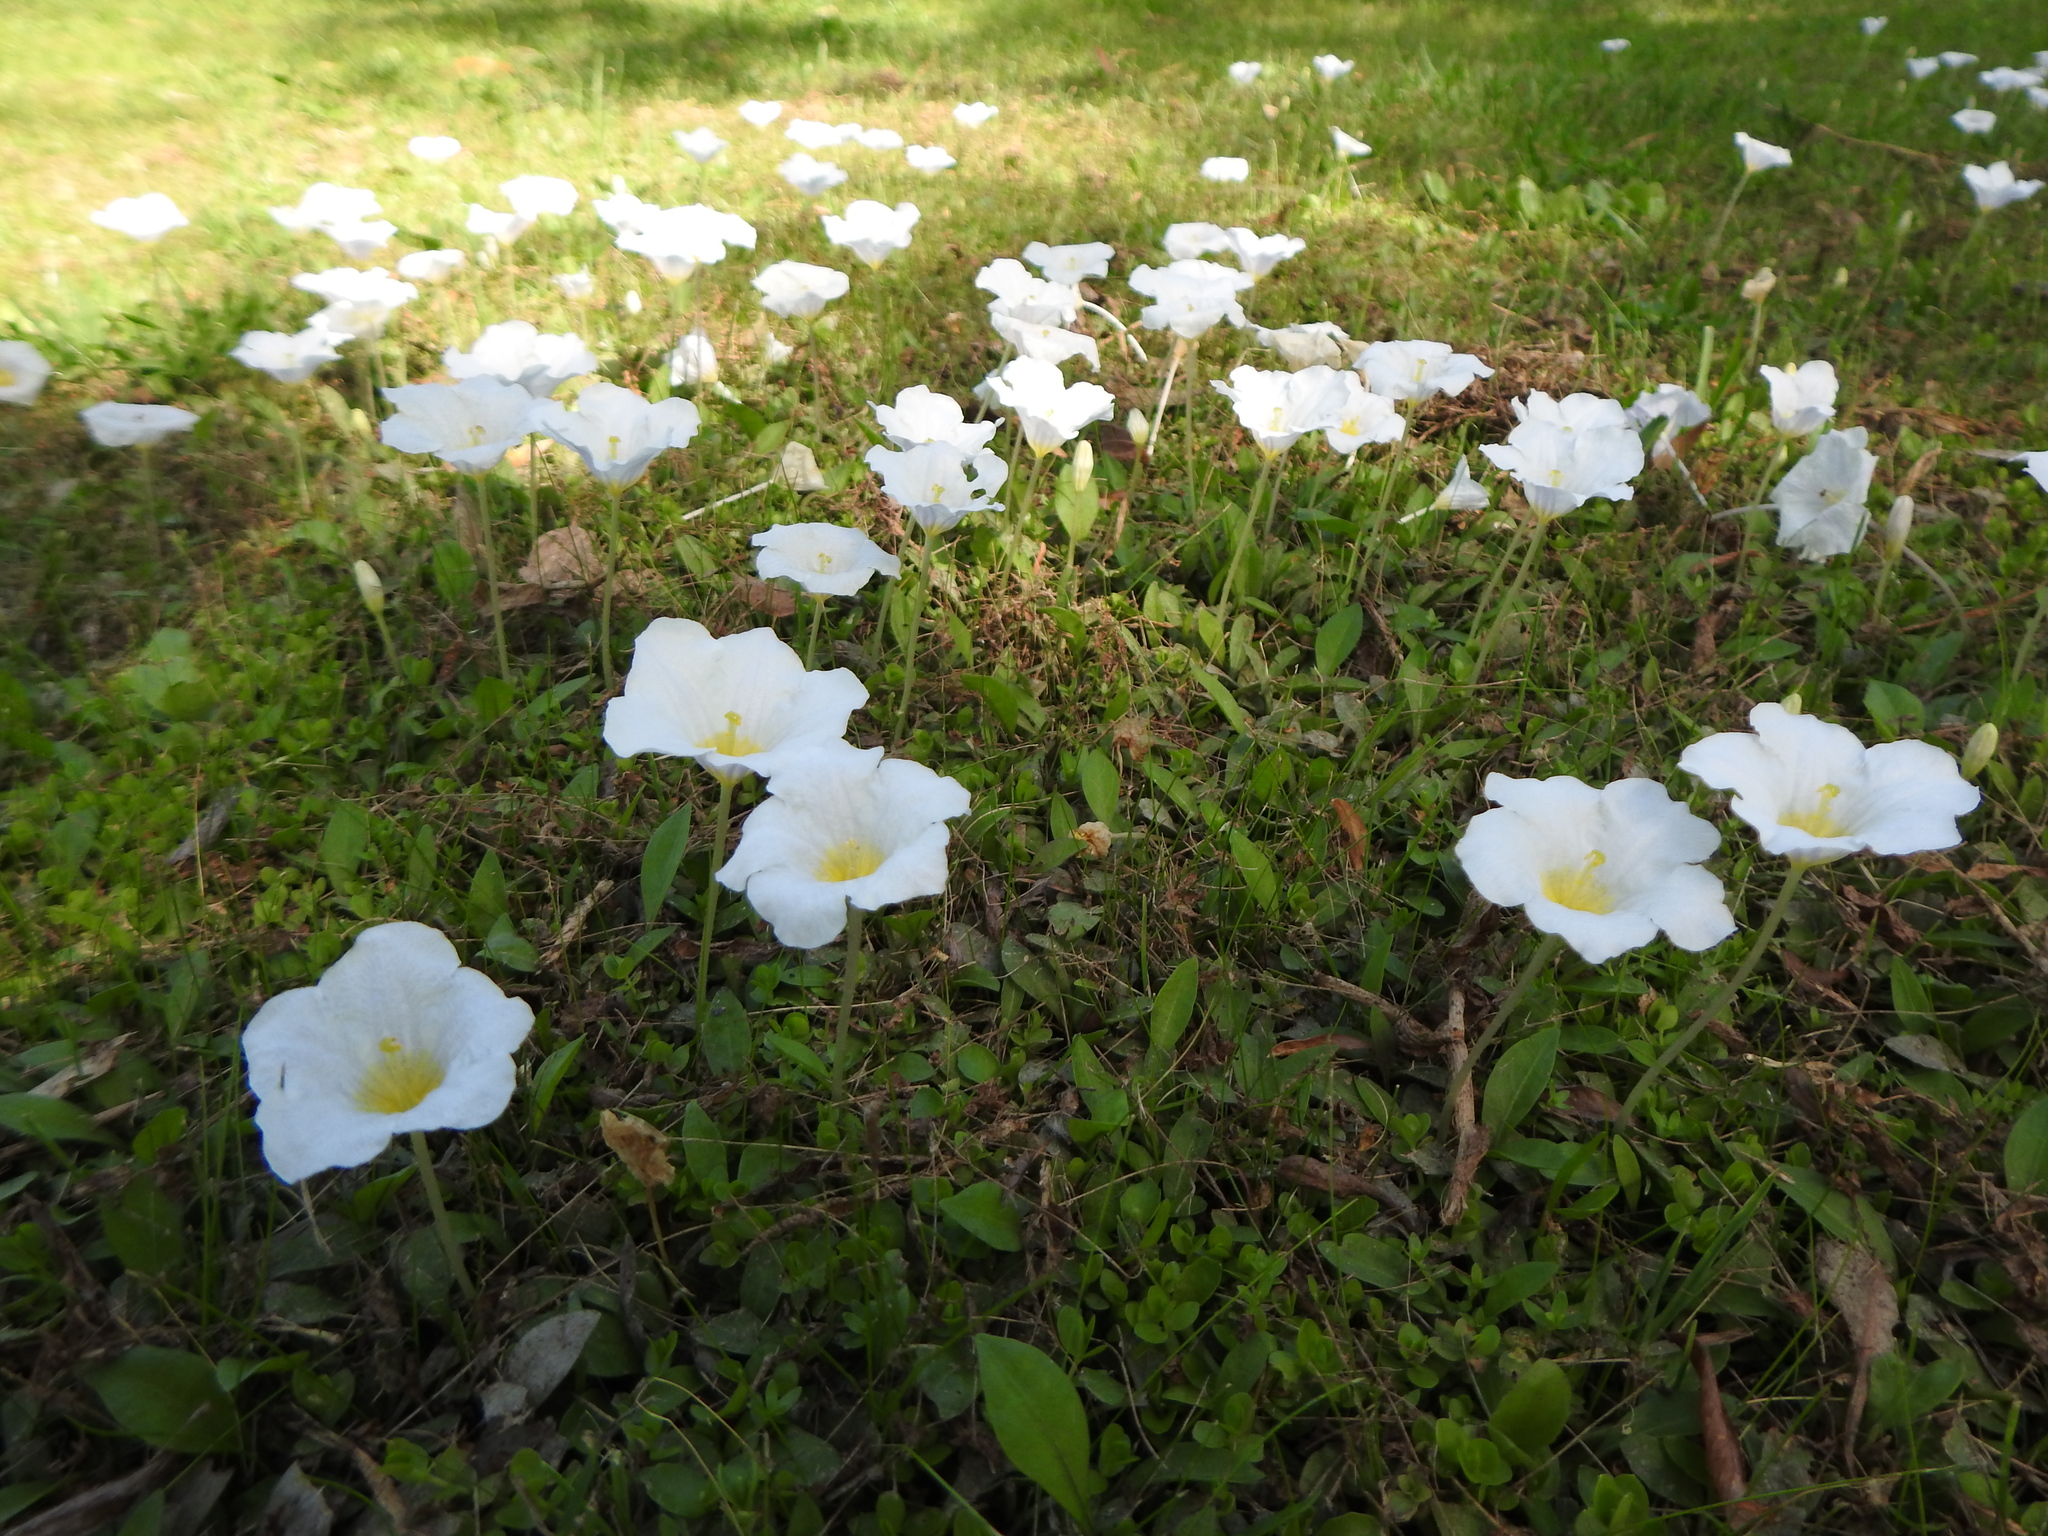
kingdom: Plantae
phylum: Tracheophyta
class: Magnoliopsida
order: Solanales
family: Solanaceae
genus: Nierembergia
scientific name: Nierembergia rivularis
